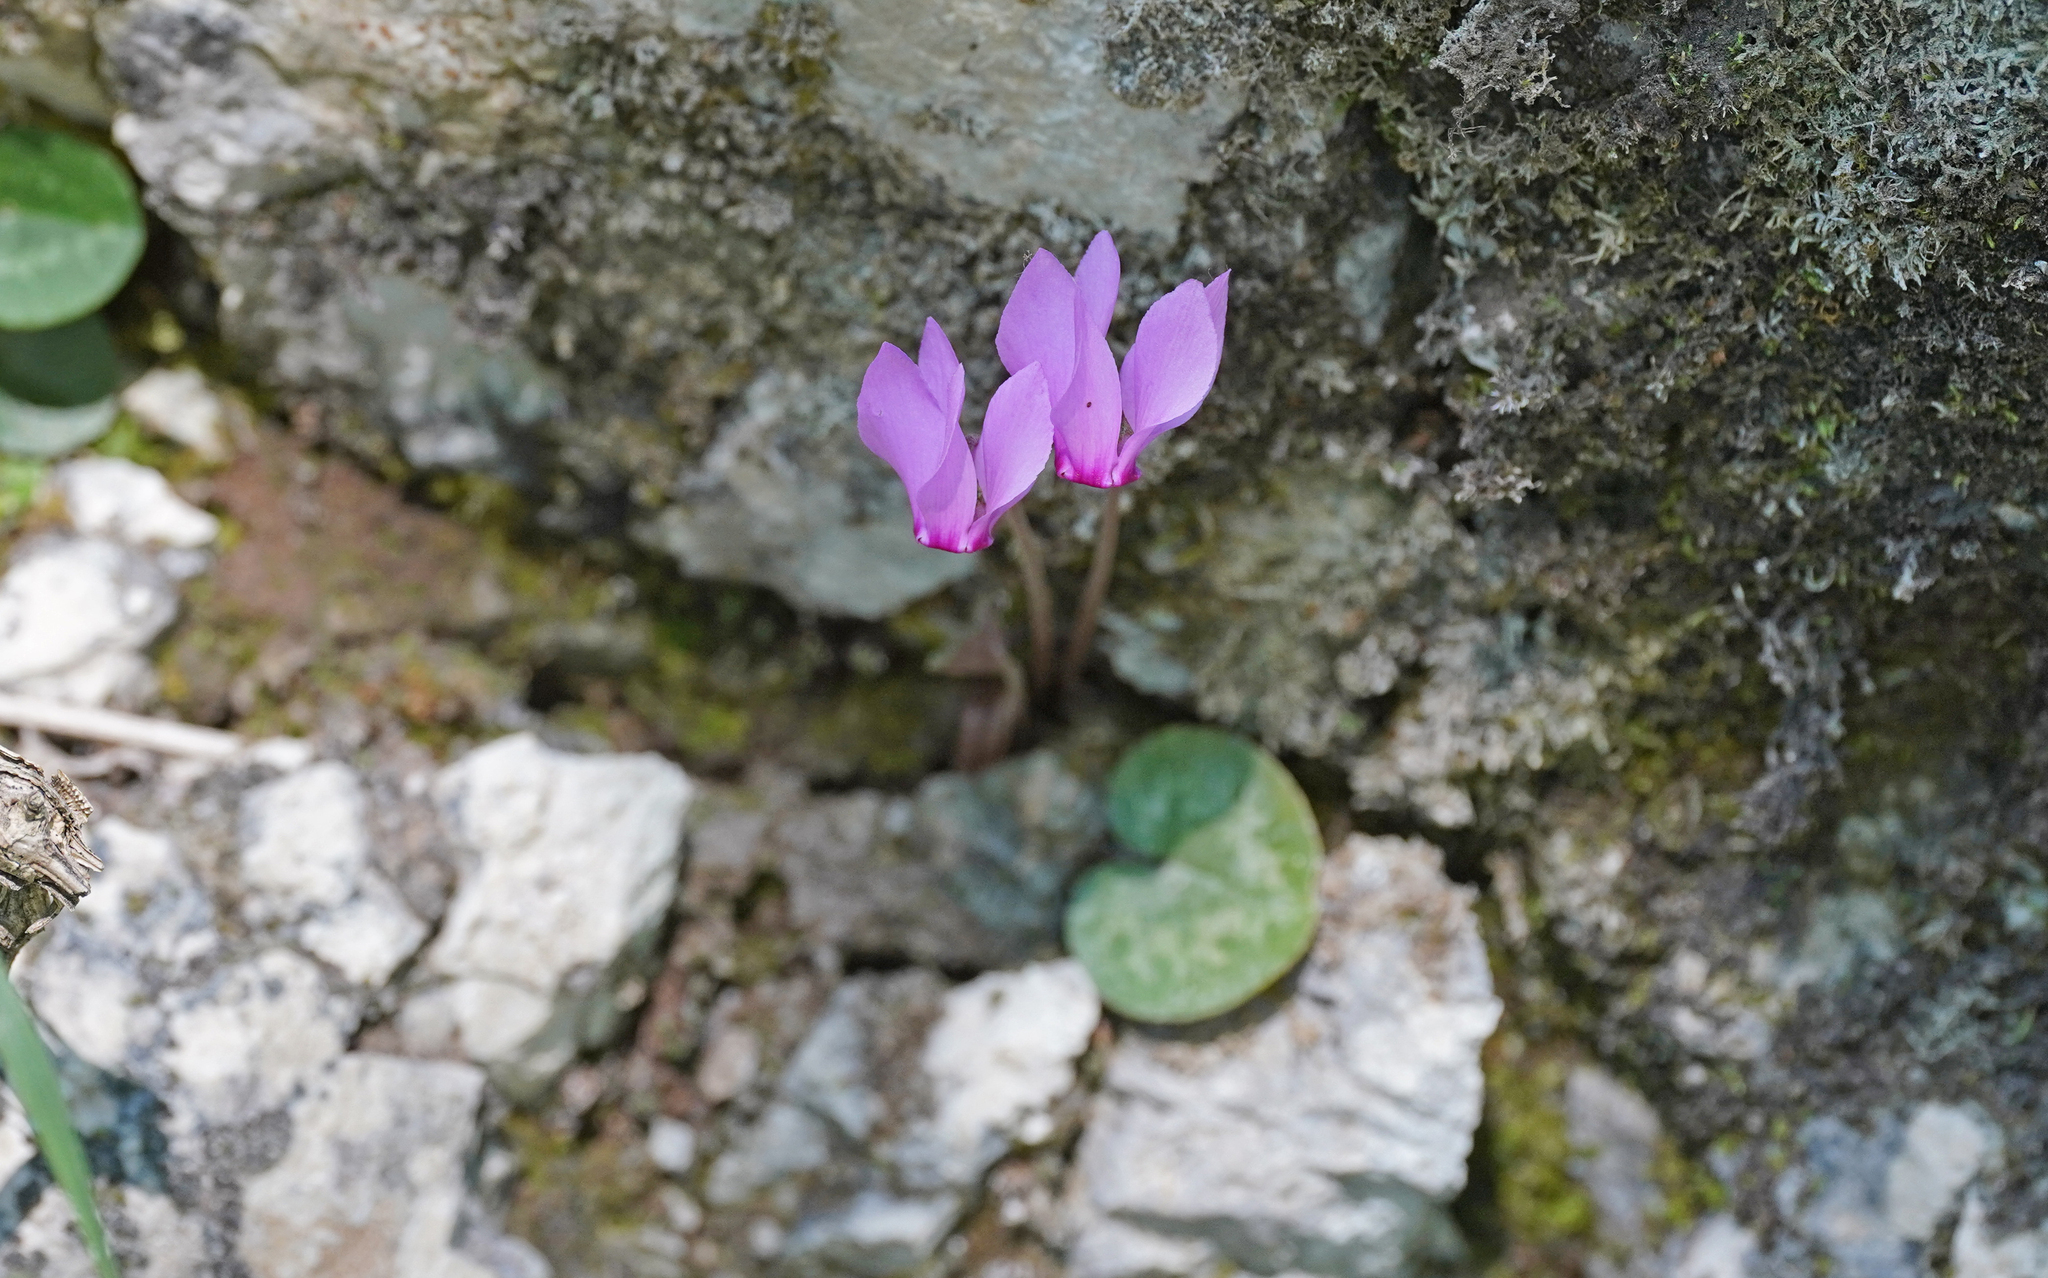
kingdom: Plantae
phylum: Tracheophyta
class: Magnoliopsida
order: Ericales
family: Primulaceae
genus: Cyclamen
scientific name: Cyclamen purpurascens
